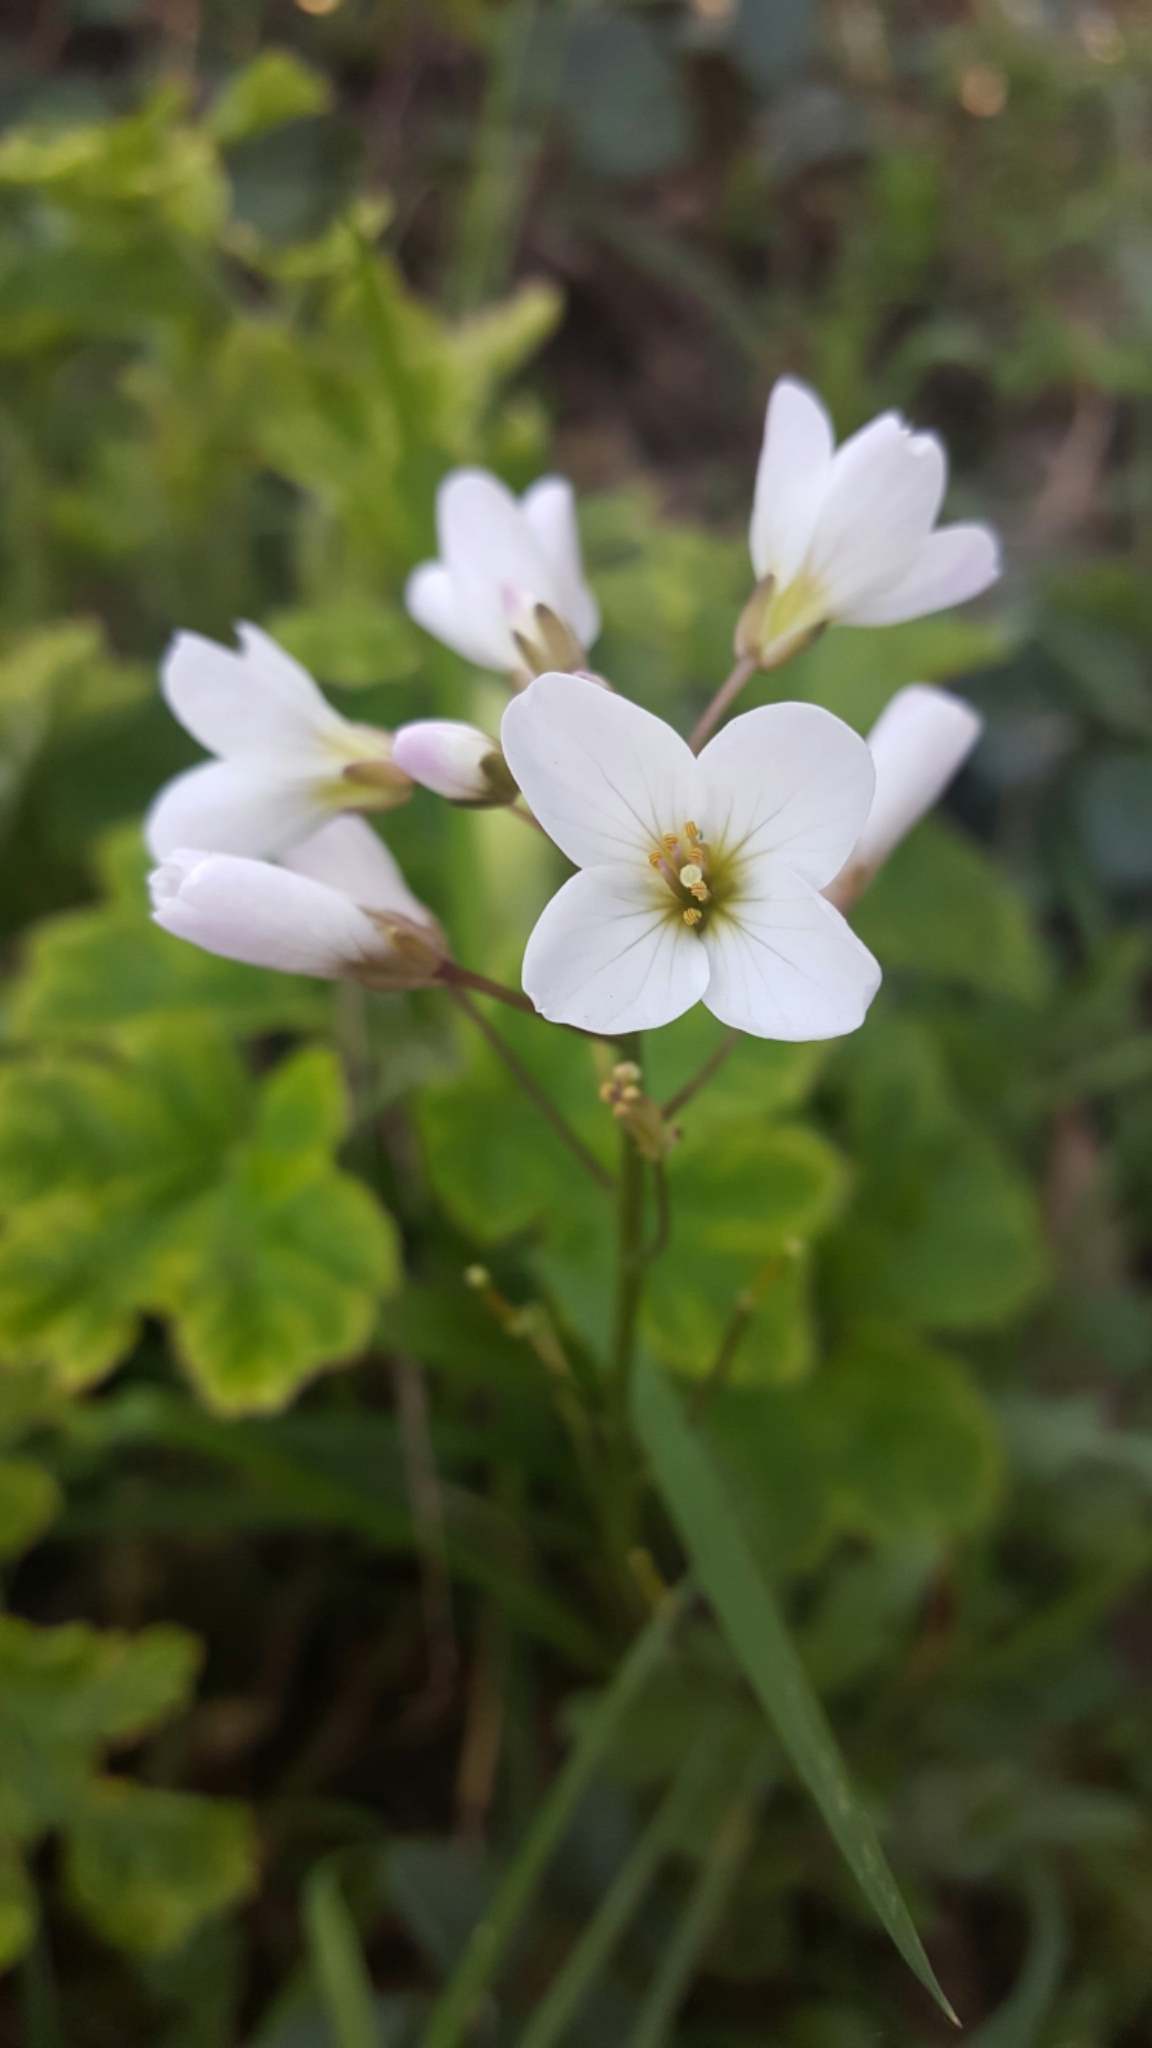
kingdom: Plantae
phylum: Tracheophyta
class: Magnoliopsida
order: Brassicales
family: Brassicaceae
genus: Cardamine
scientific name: Cardamine californica
